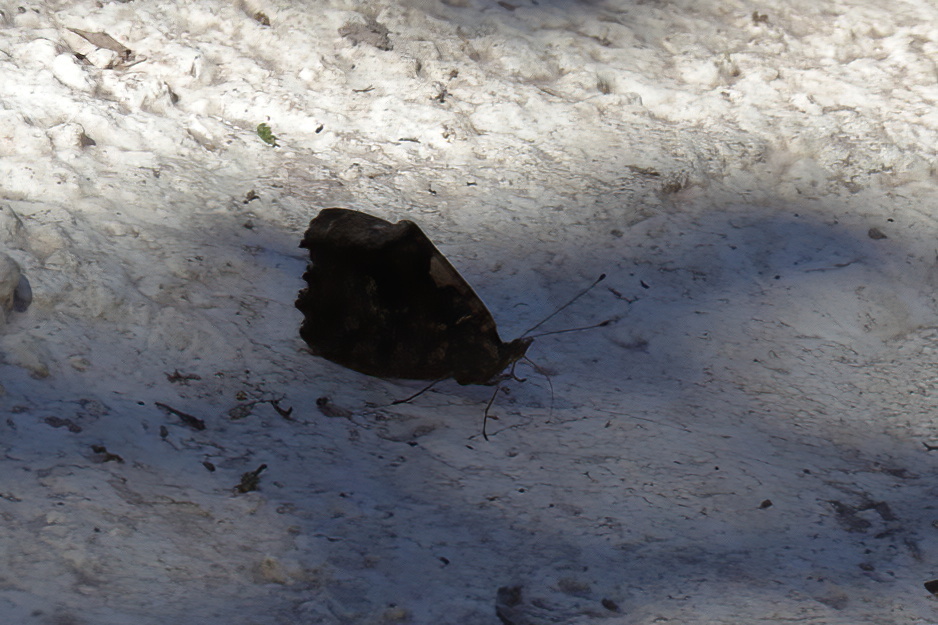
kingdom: Animalia
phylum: Arthropoda
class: Insecta
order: Lepidoptera
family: Nymphalidae
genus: Myscelia
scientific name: Myscelia ethusa
